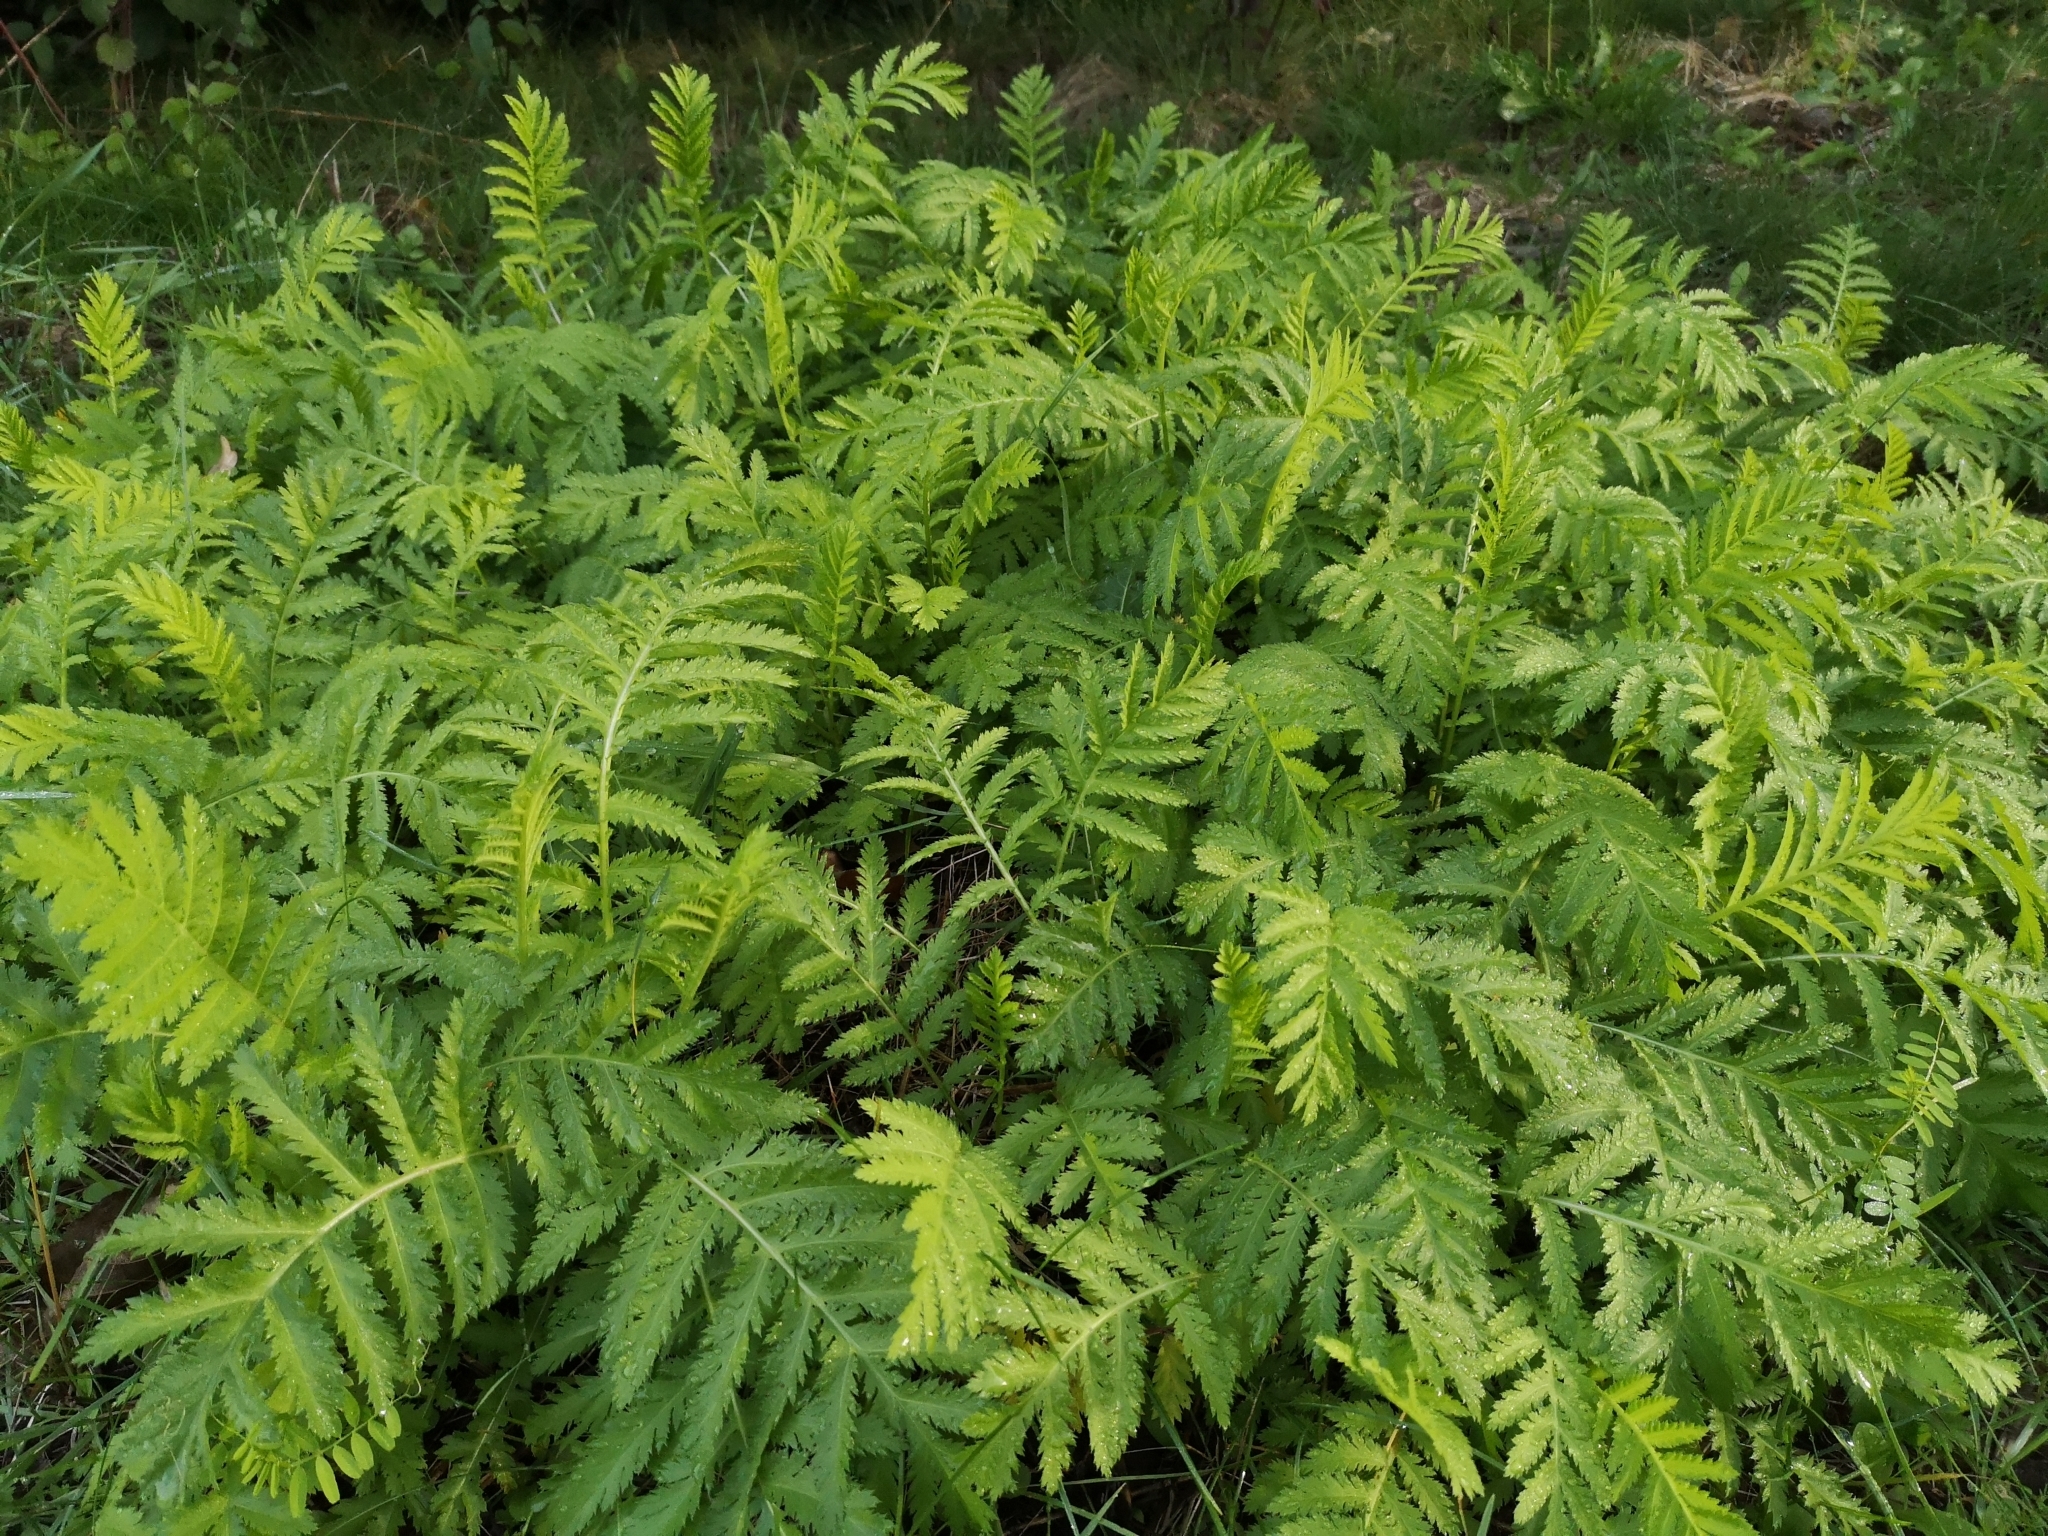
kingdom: Plantae
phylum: Tracheophyta
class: Magnoliopsida
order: Asterales
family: Asteraceae
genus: Tanacetum
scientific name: Tanacetum vulgare
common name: Common tansy
